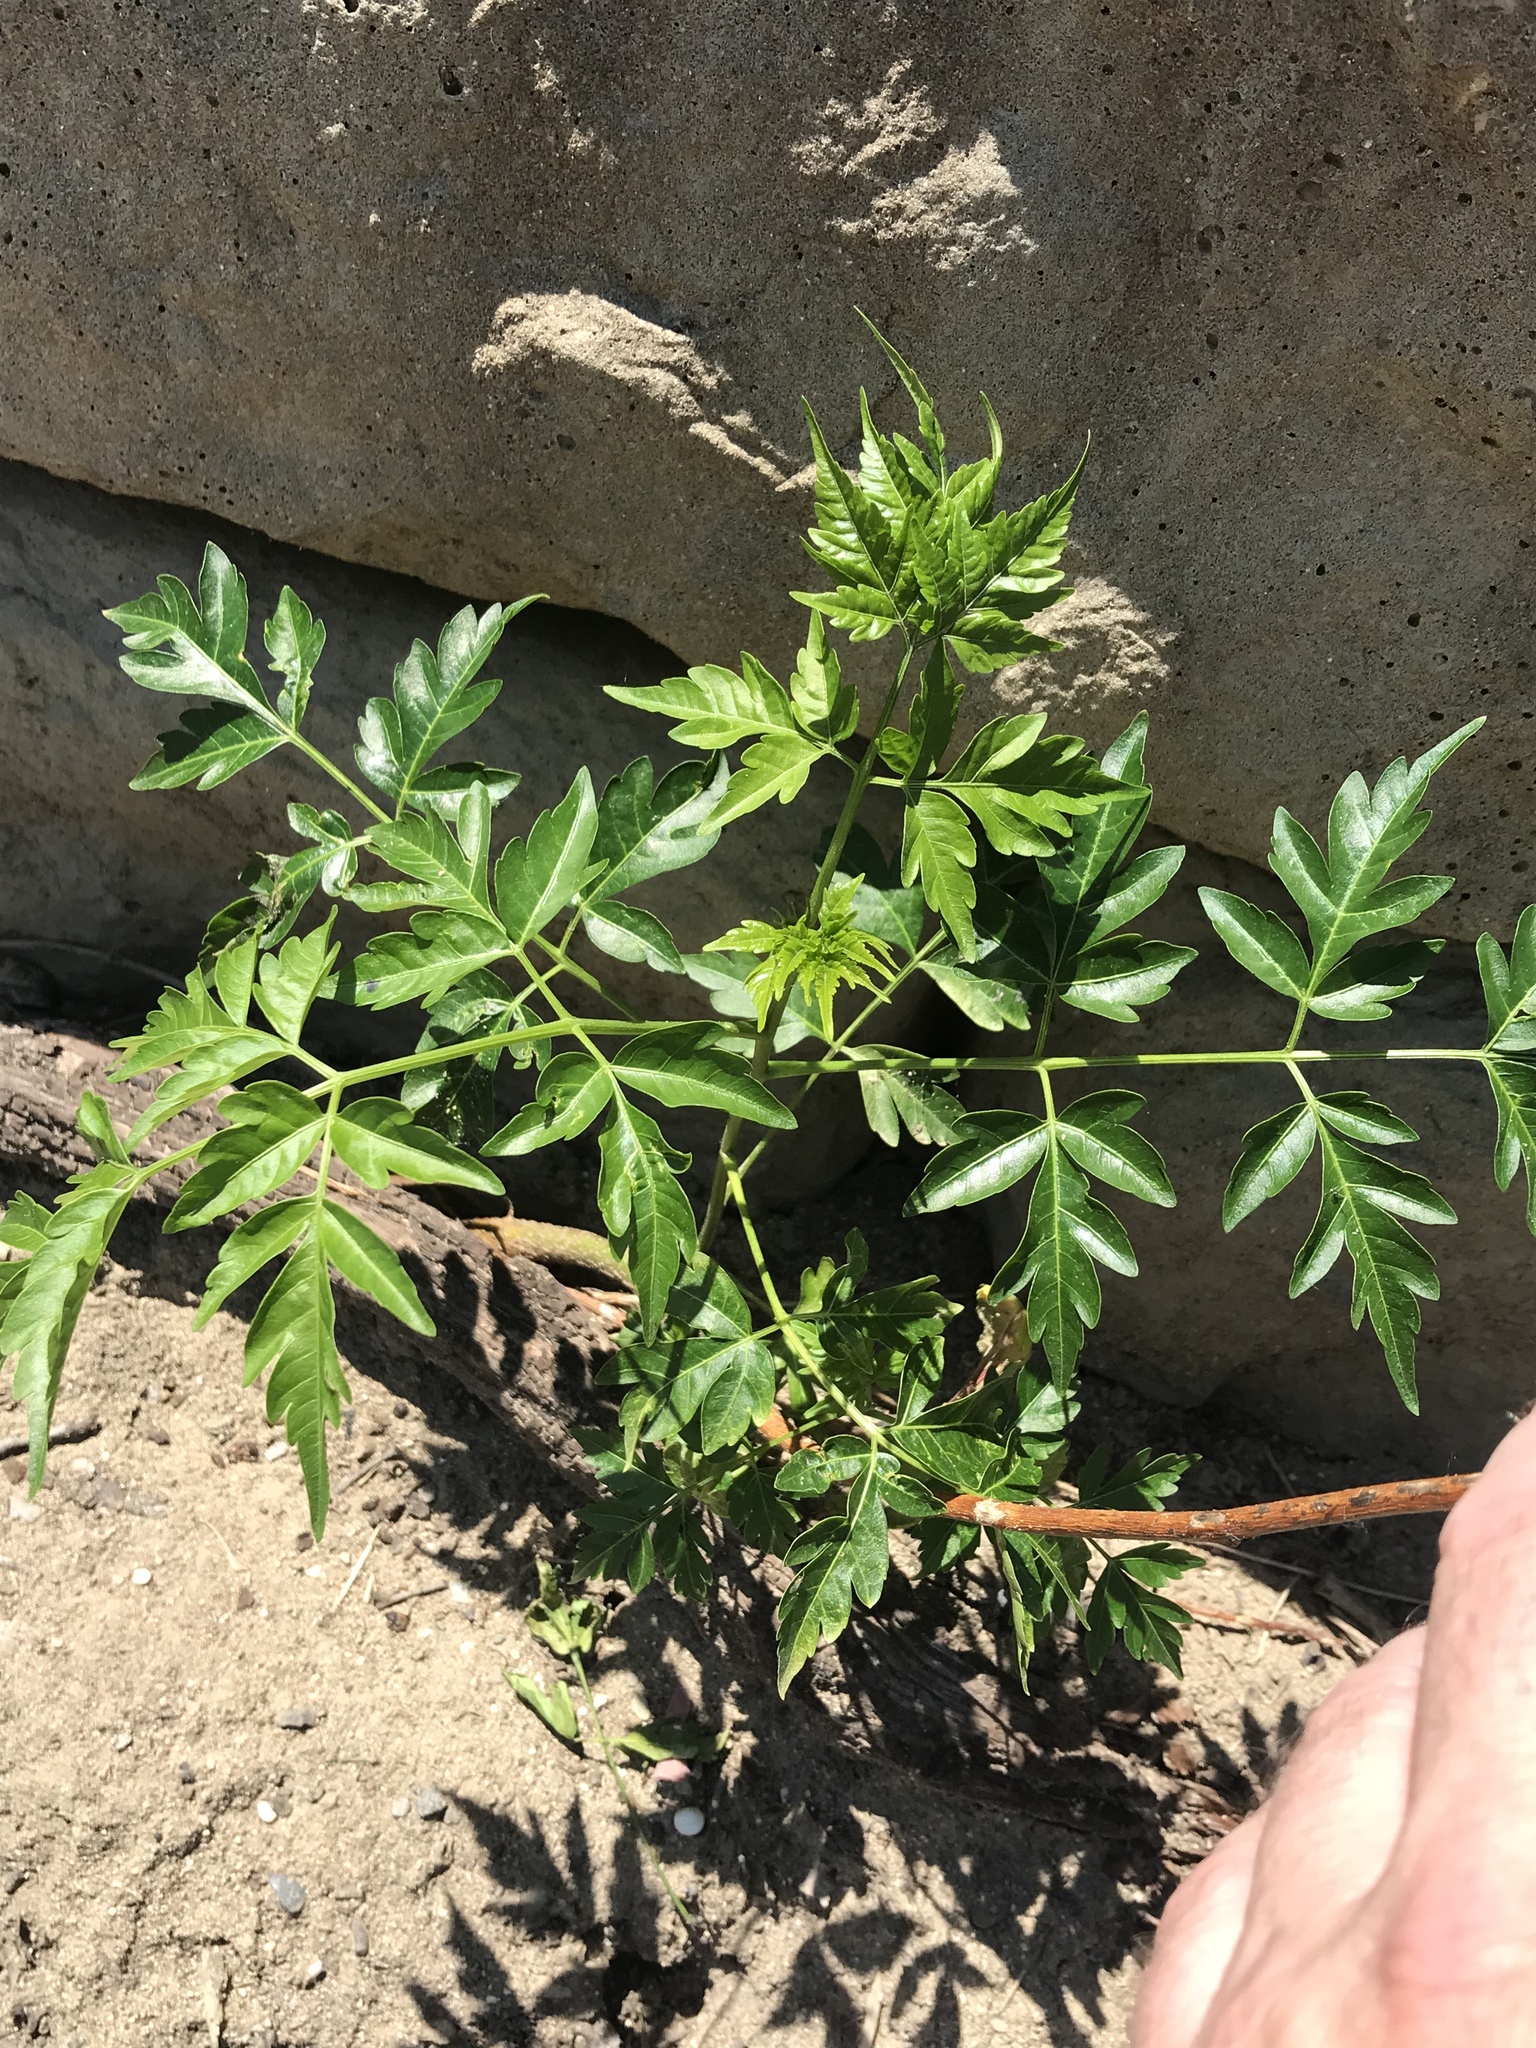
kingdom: Plantae
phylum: Tracheophyta
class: Magnoliopsida
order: Sapindales
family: Meliaceae
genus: Melia
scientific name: Melia azedarach
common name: Chinaberrytree
